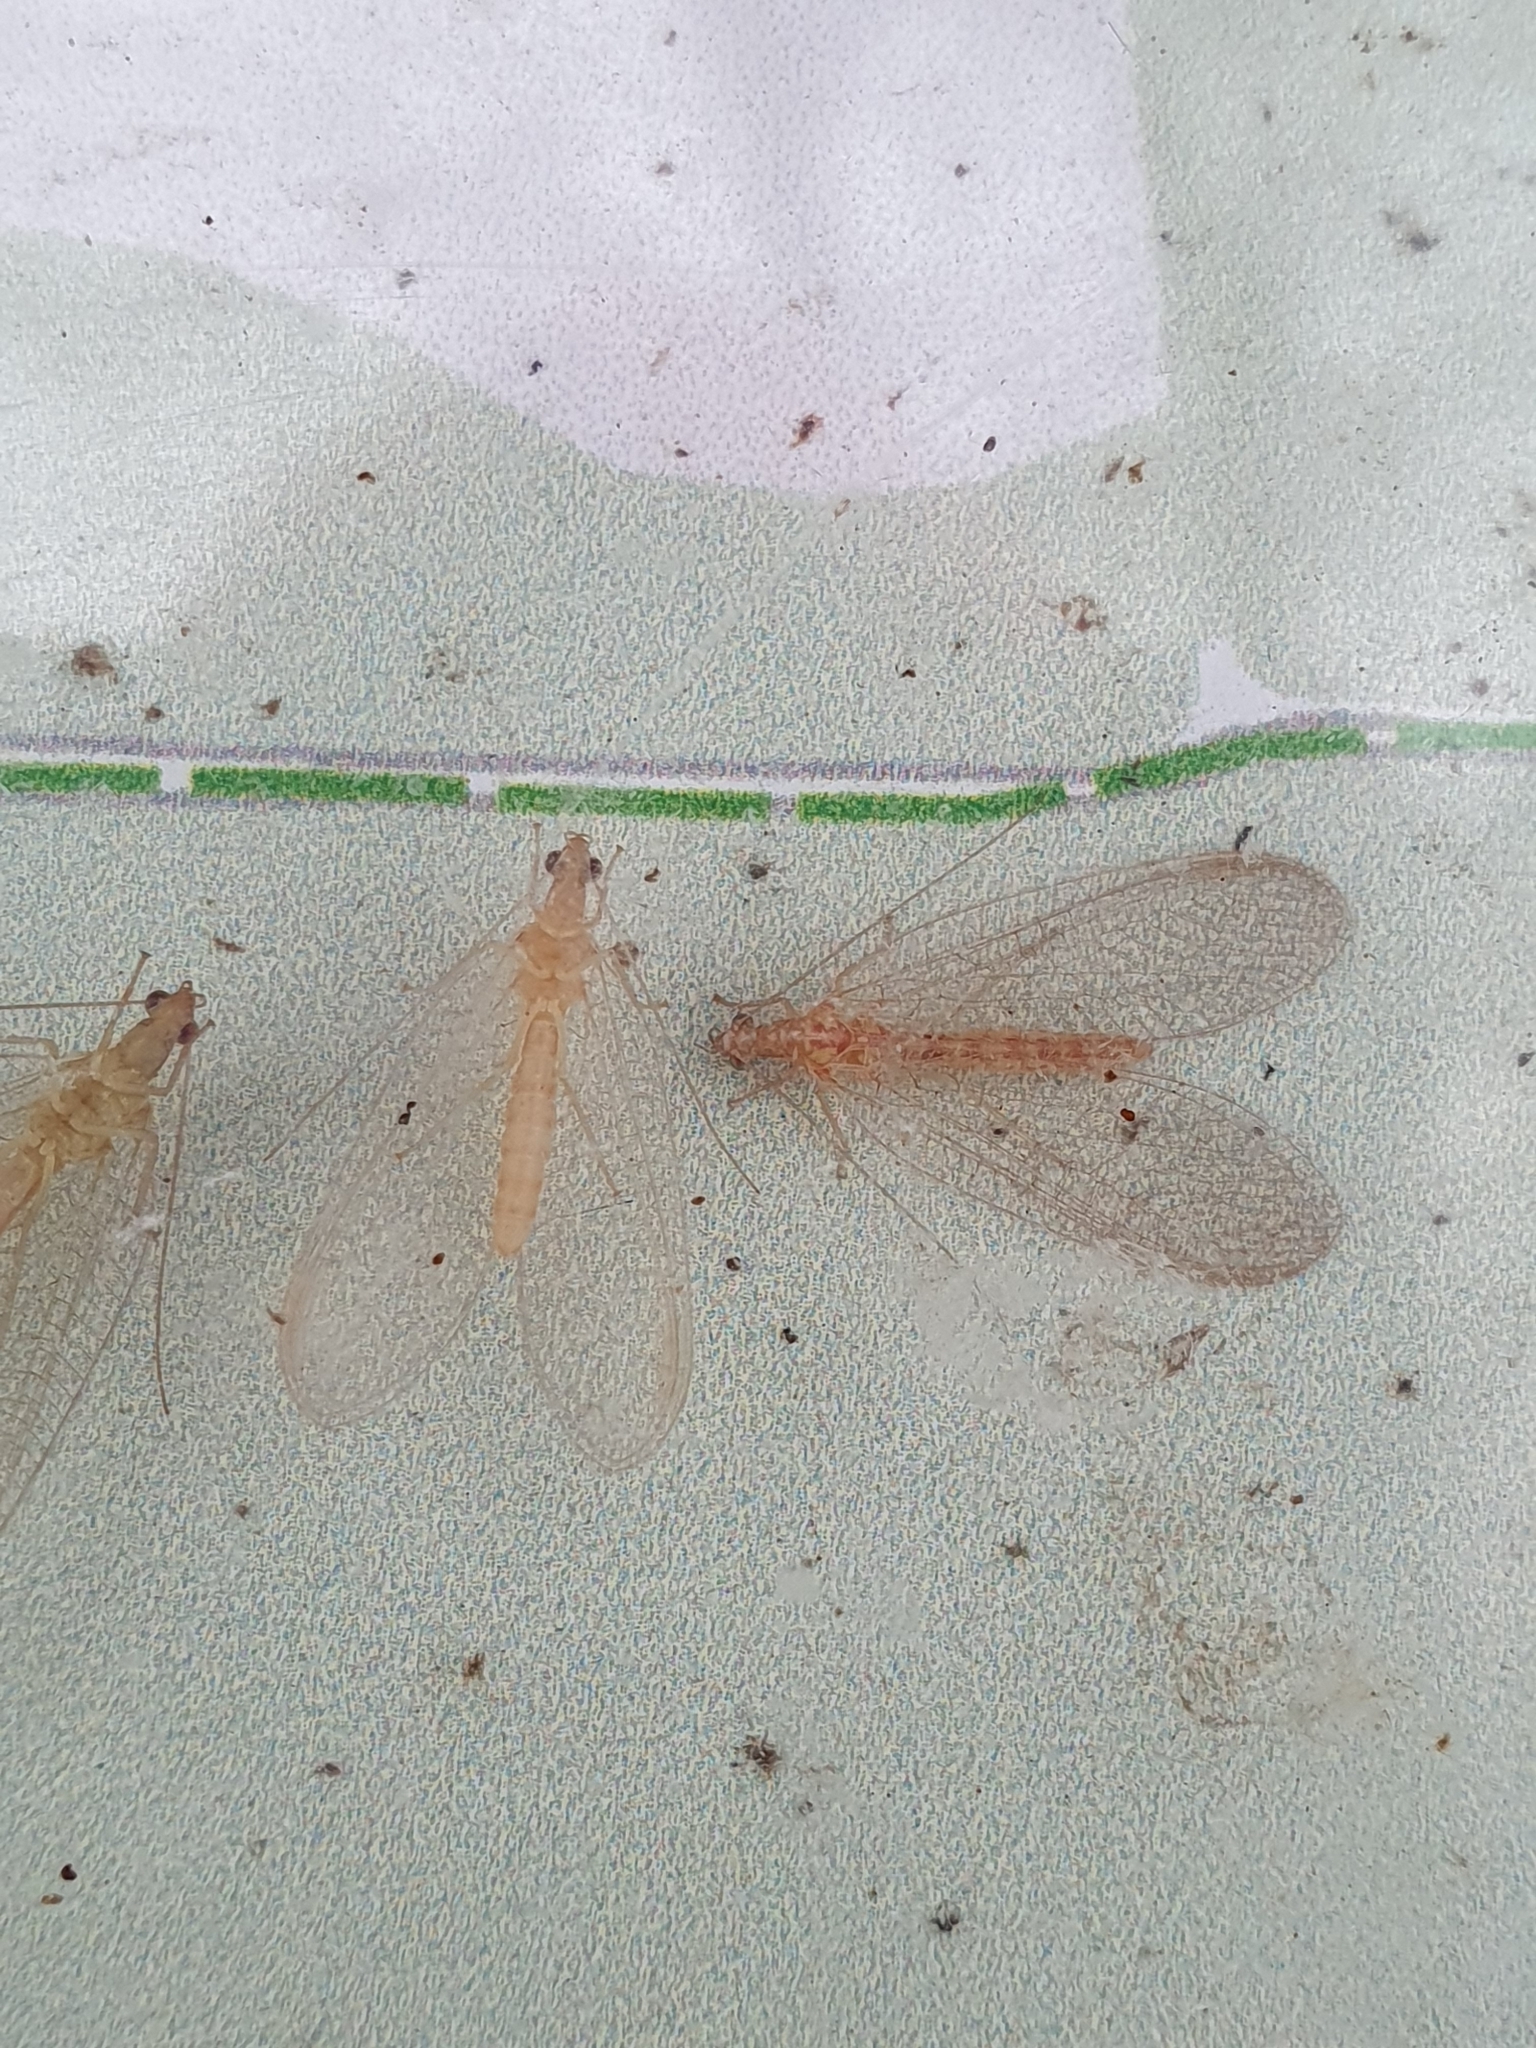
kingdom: Animalia
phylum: Arthropoda
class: Insecta
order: Neuroptera
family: Chrysopidae
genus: Chrysoperla
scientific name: Chrysoperla
